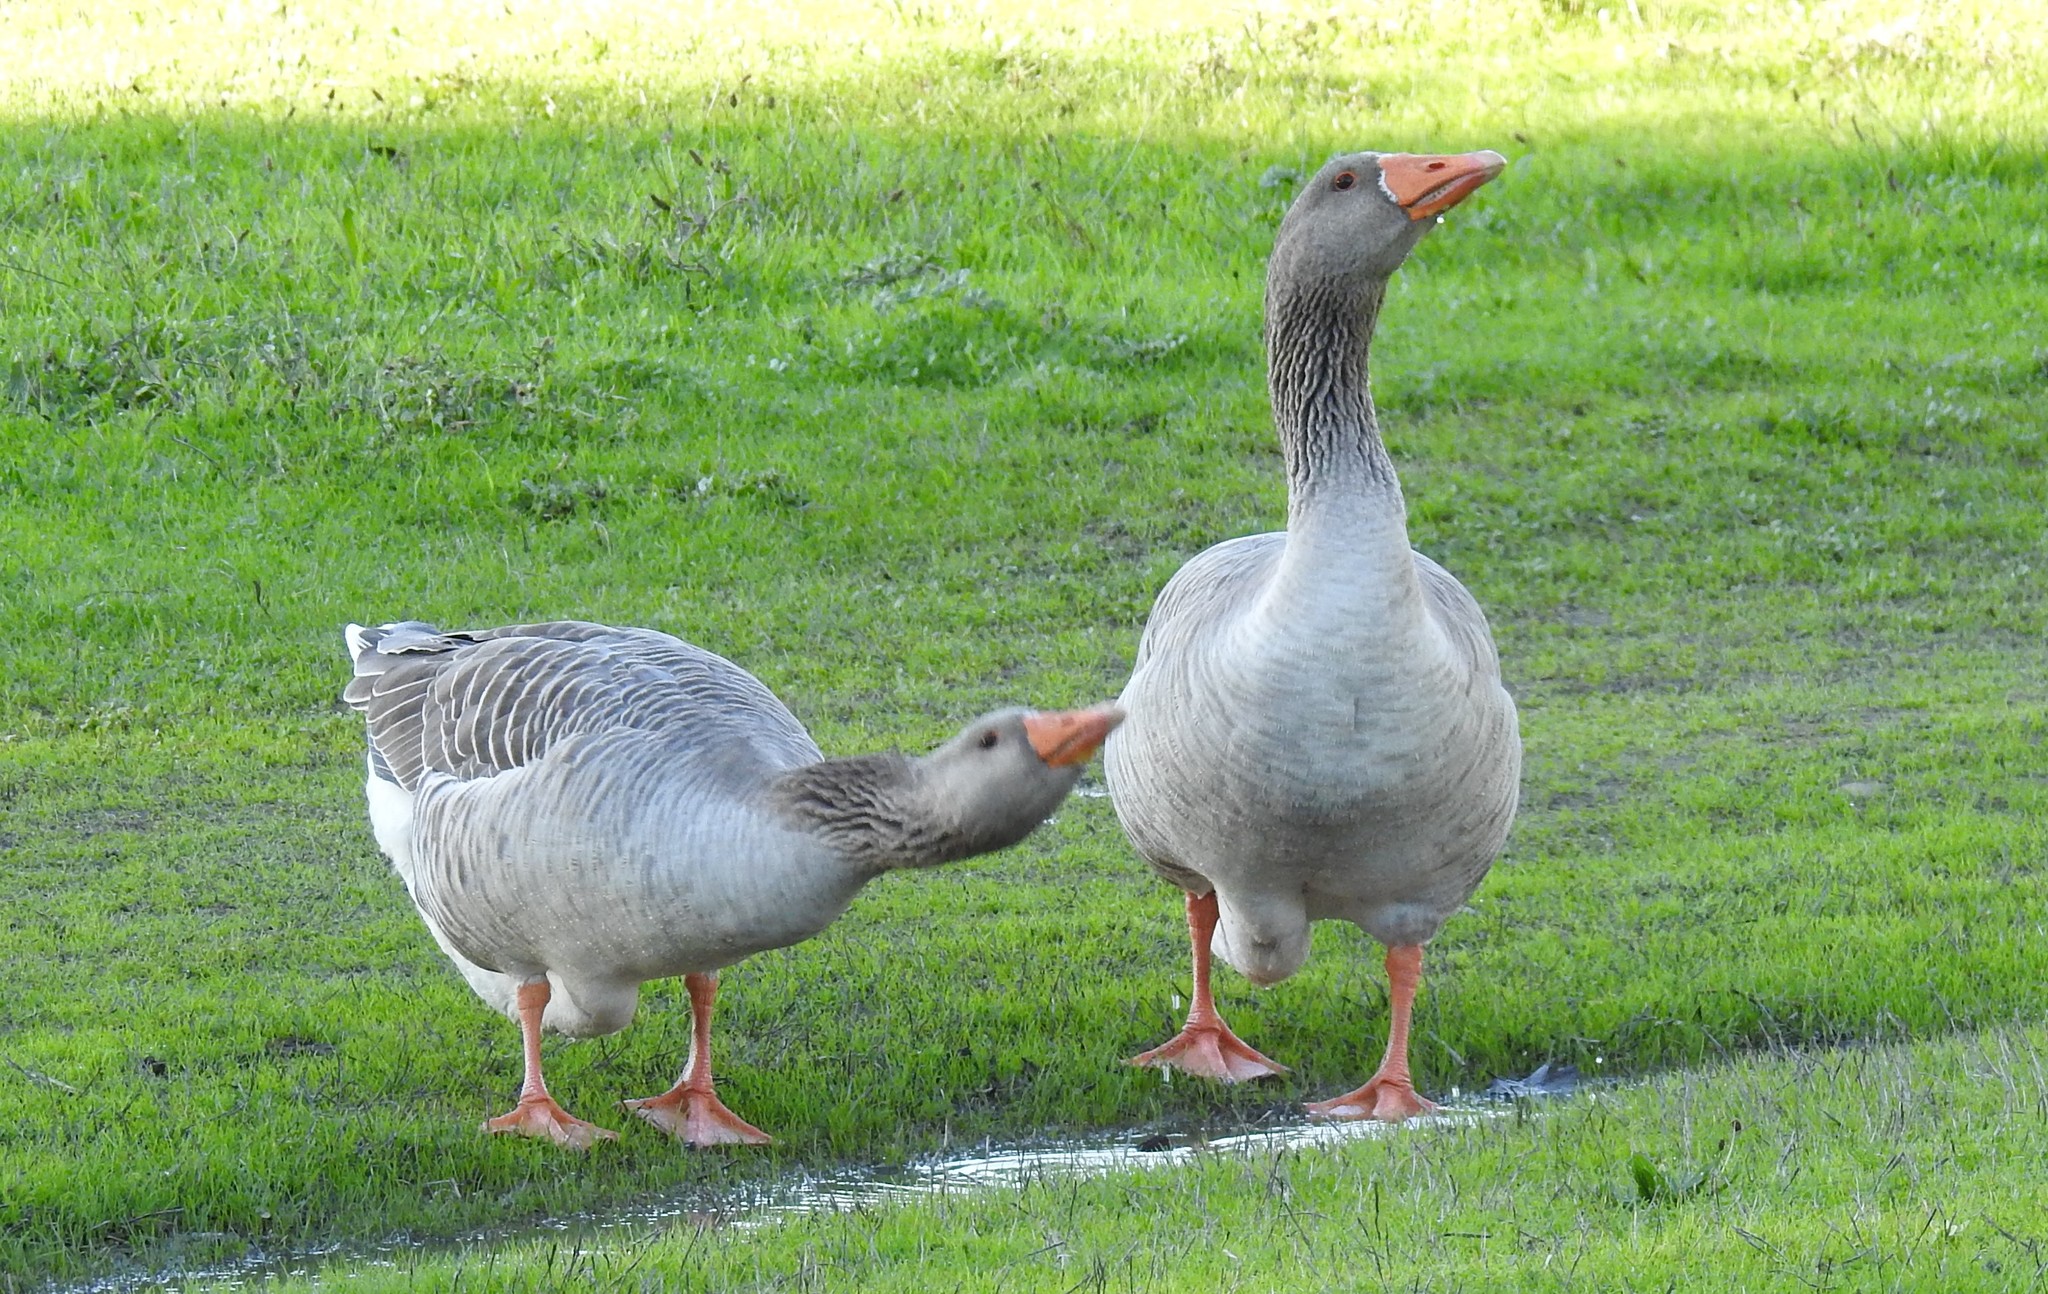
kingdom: Animalia
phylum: Chordata
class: Aves
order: Anseriformes
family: Anatidae
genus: Anser
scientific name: Anser anser
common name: Greylag goose
